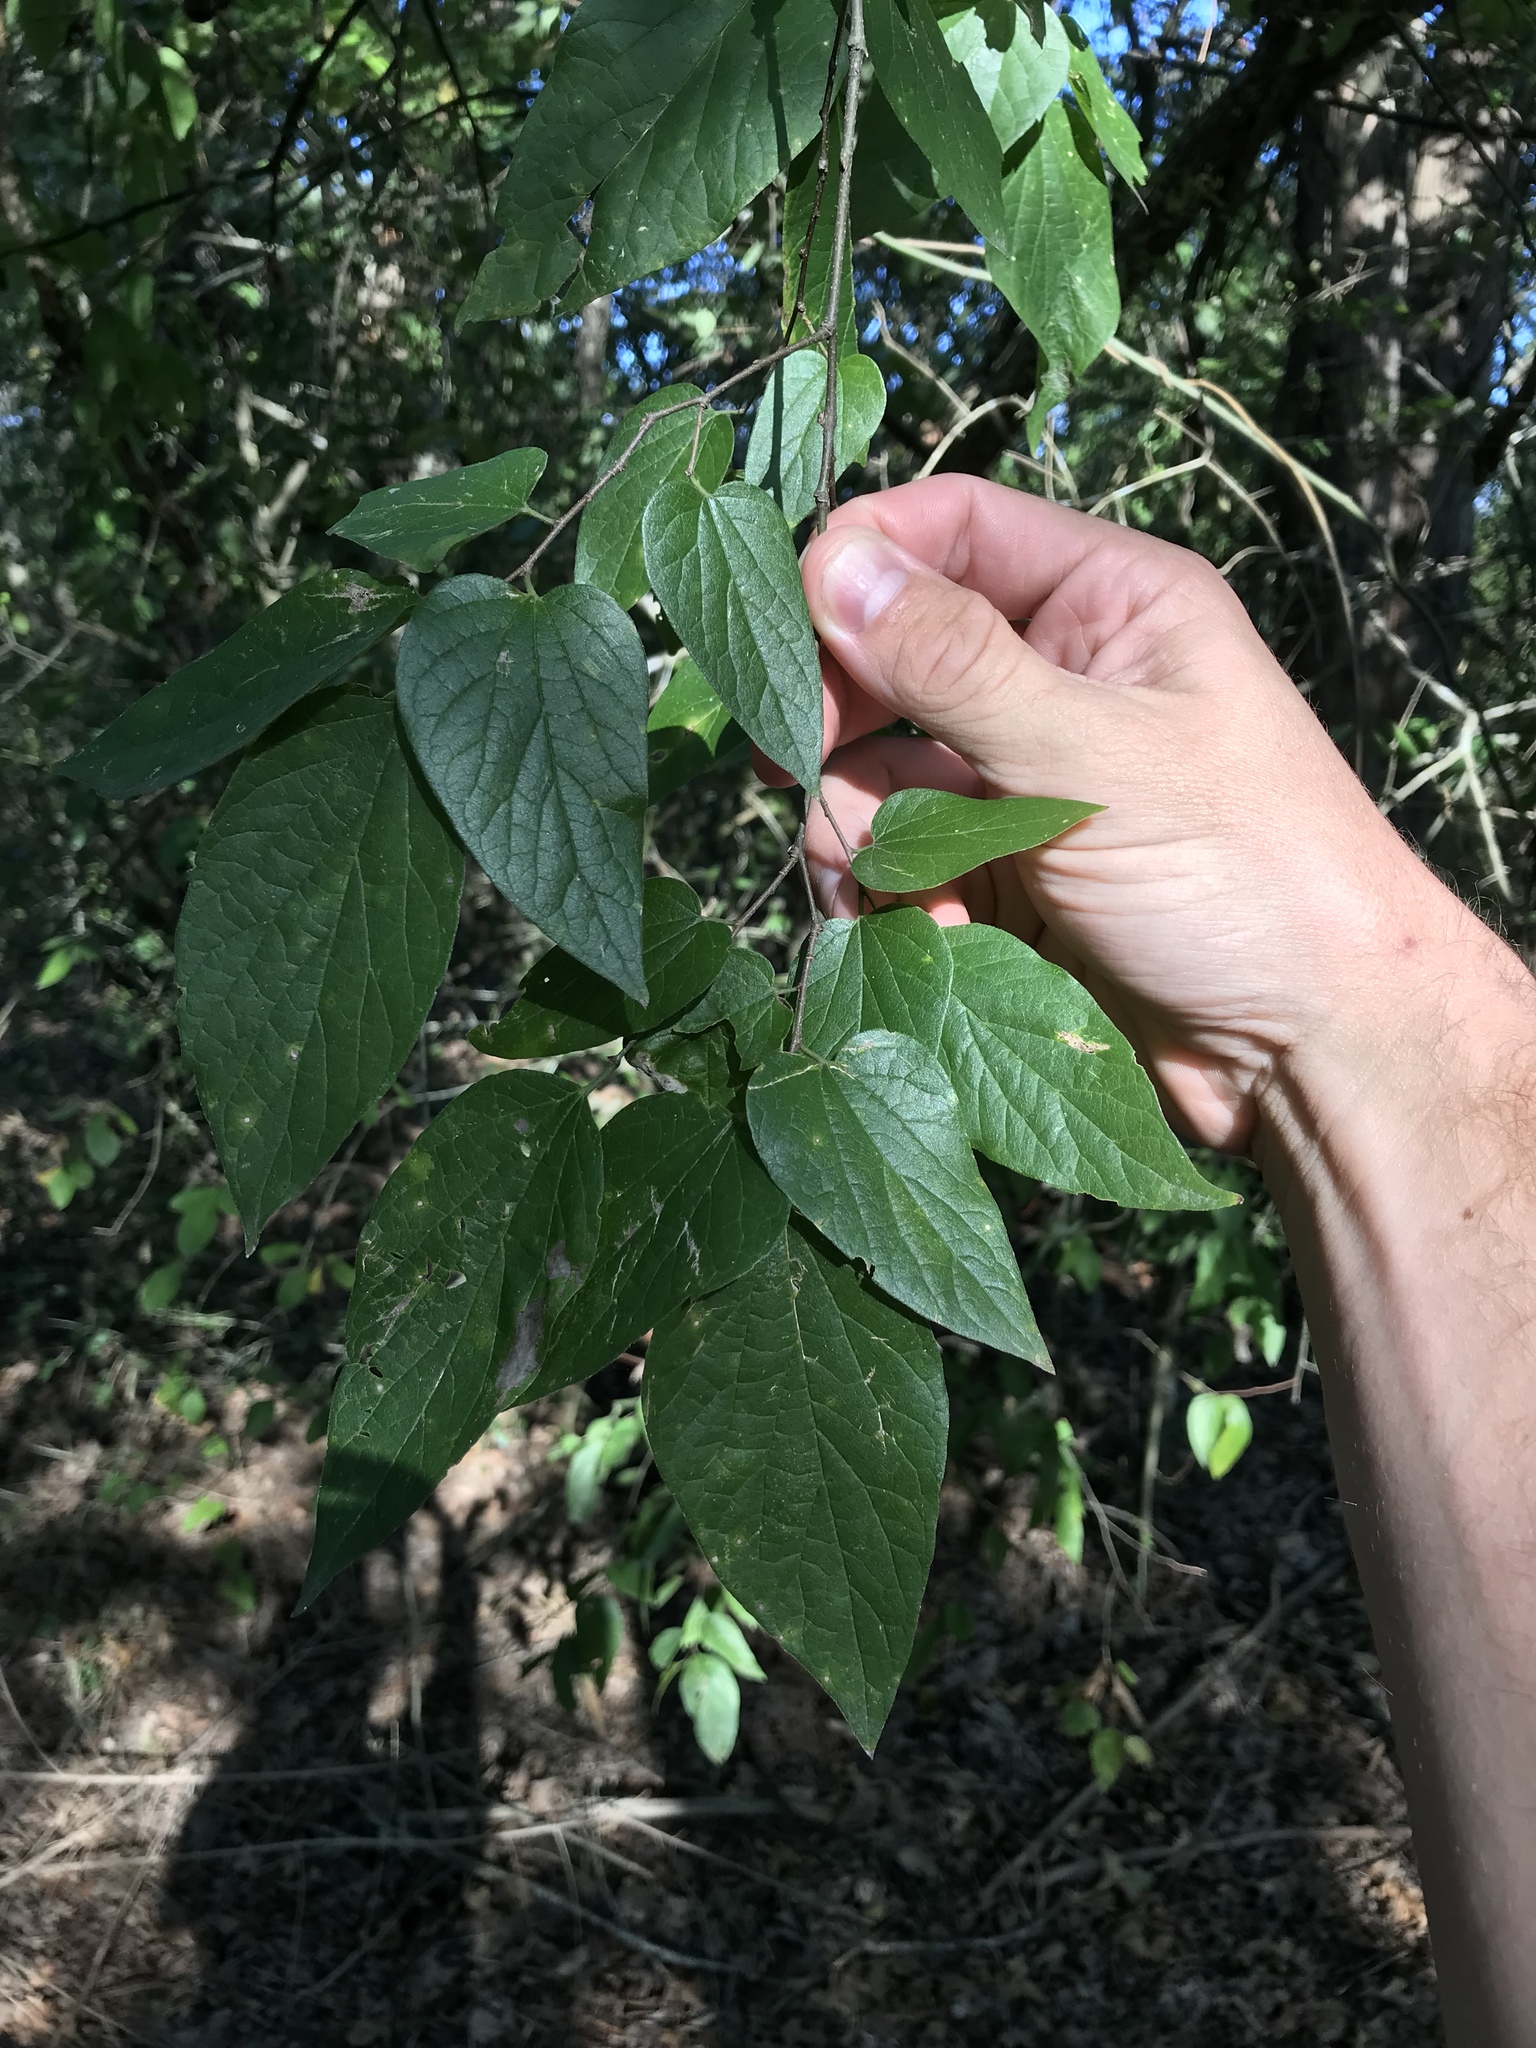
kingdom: Plantae
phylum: Tracheophyta
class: Magnoliopsida
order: Rosales
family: Cannabaceae
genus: Celtis
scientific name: Celtis laevigata
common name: Sugarberry
